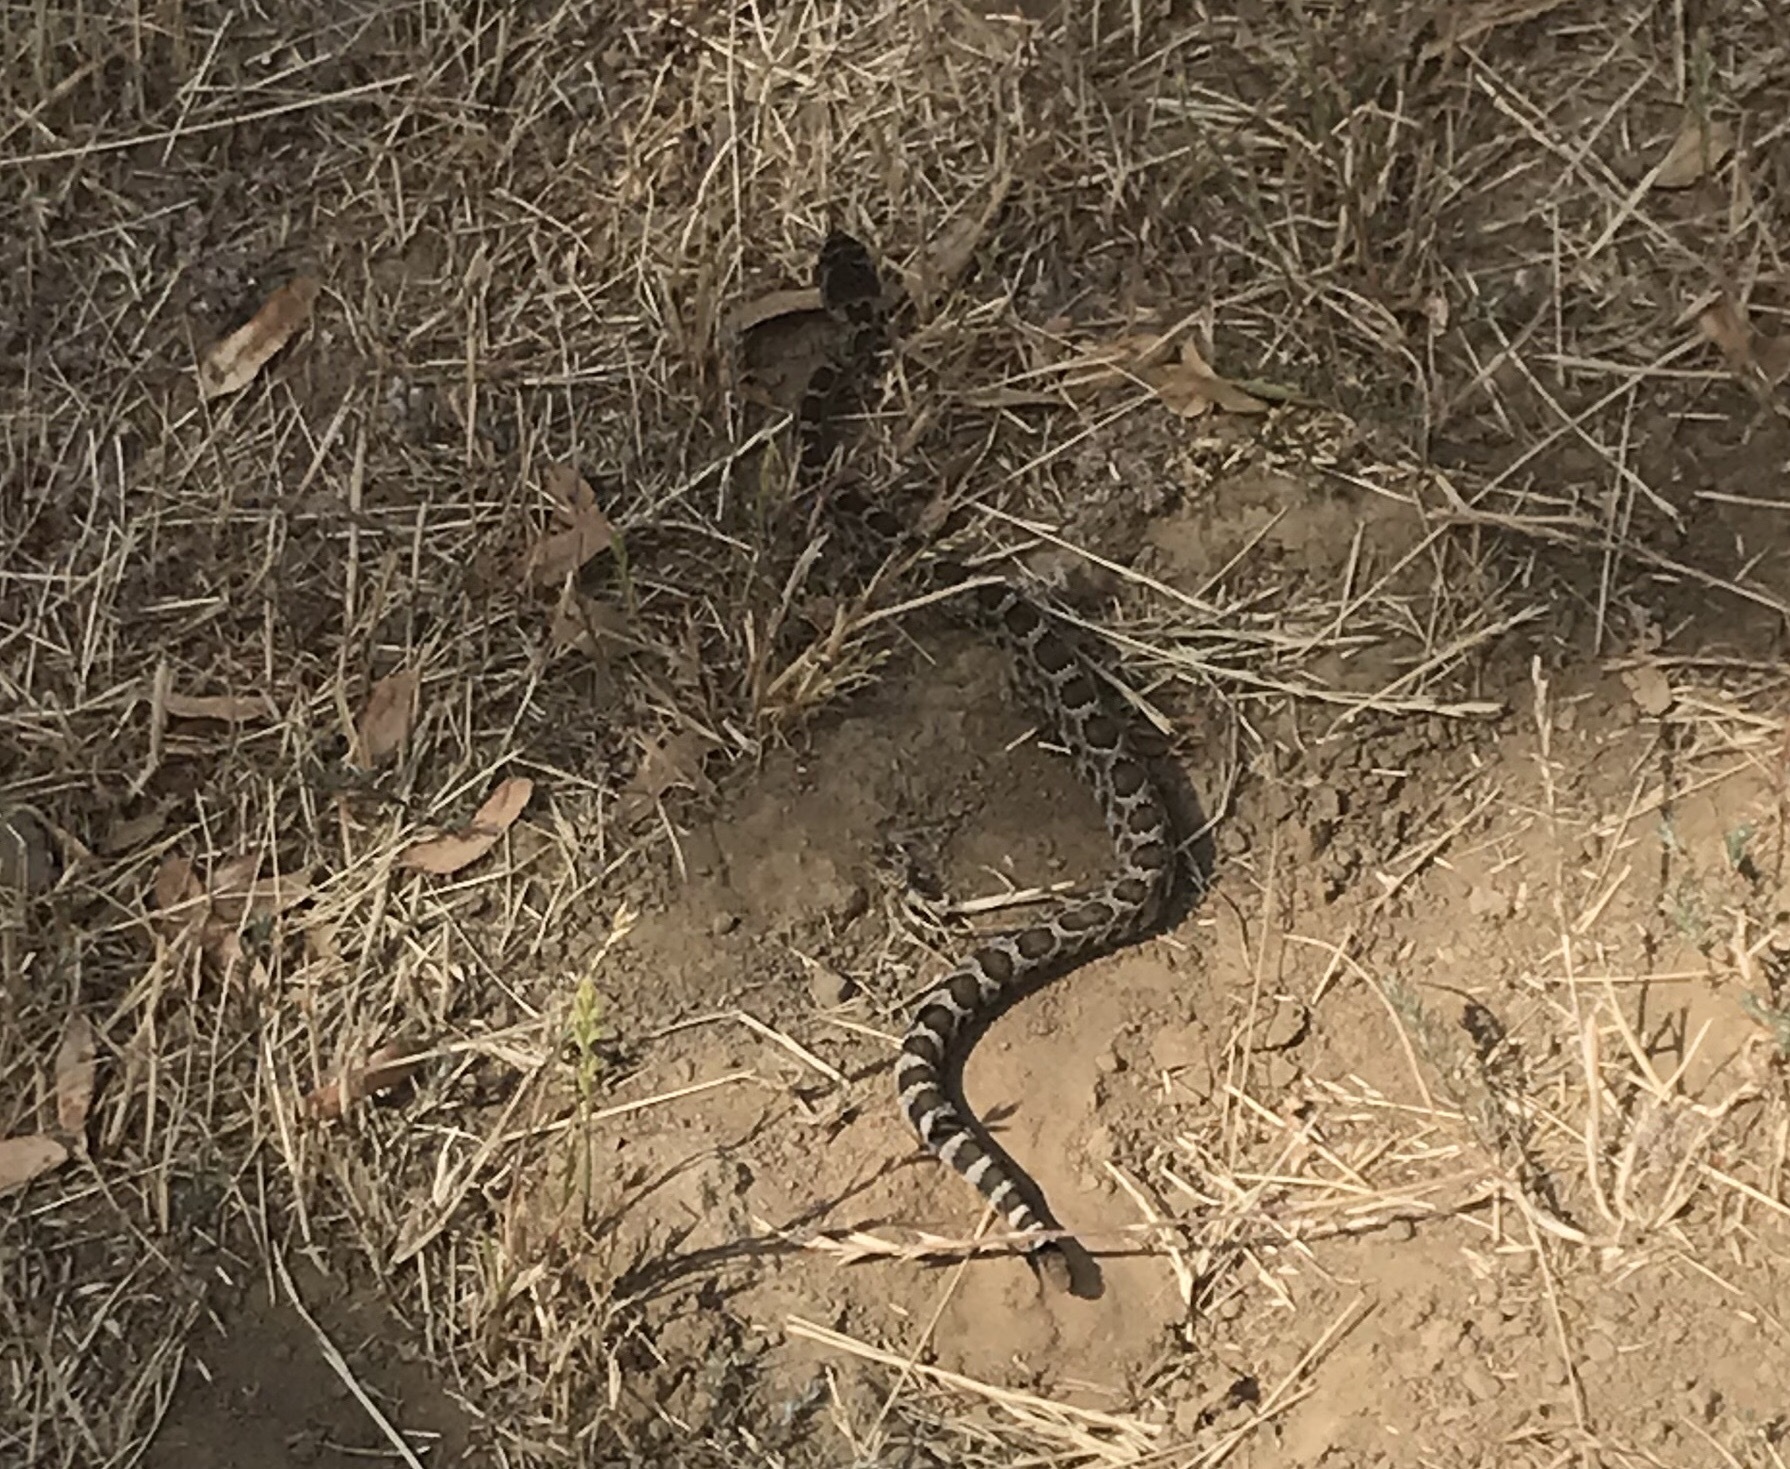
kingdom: Animalia
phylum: Chordata
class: Squamata
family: Viperidae
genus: Crotalus
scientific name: Crotalus oreganus
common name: Abyssus
